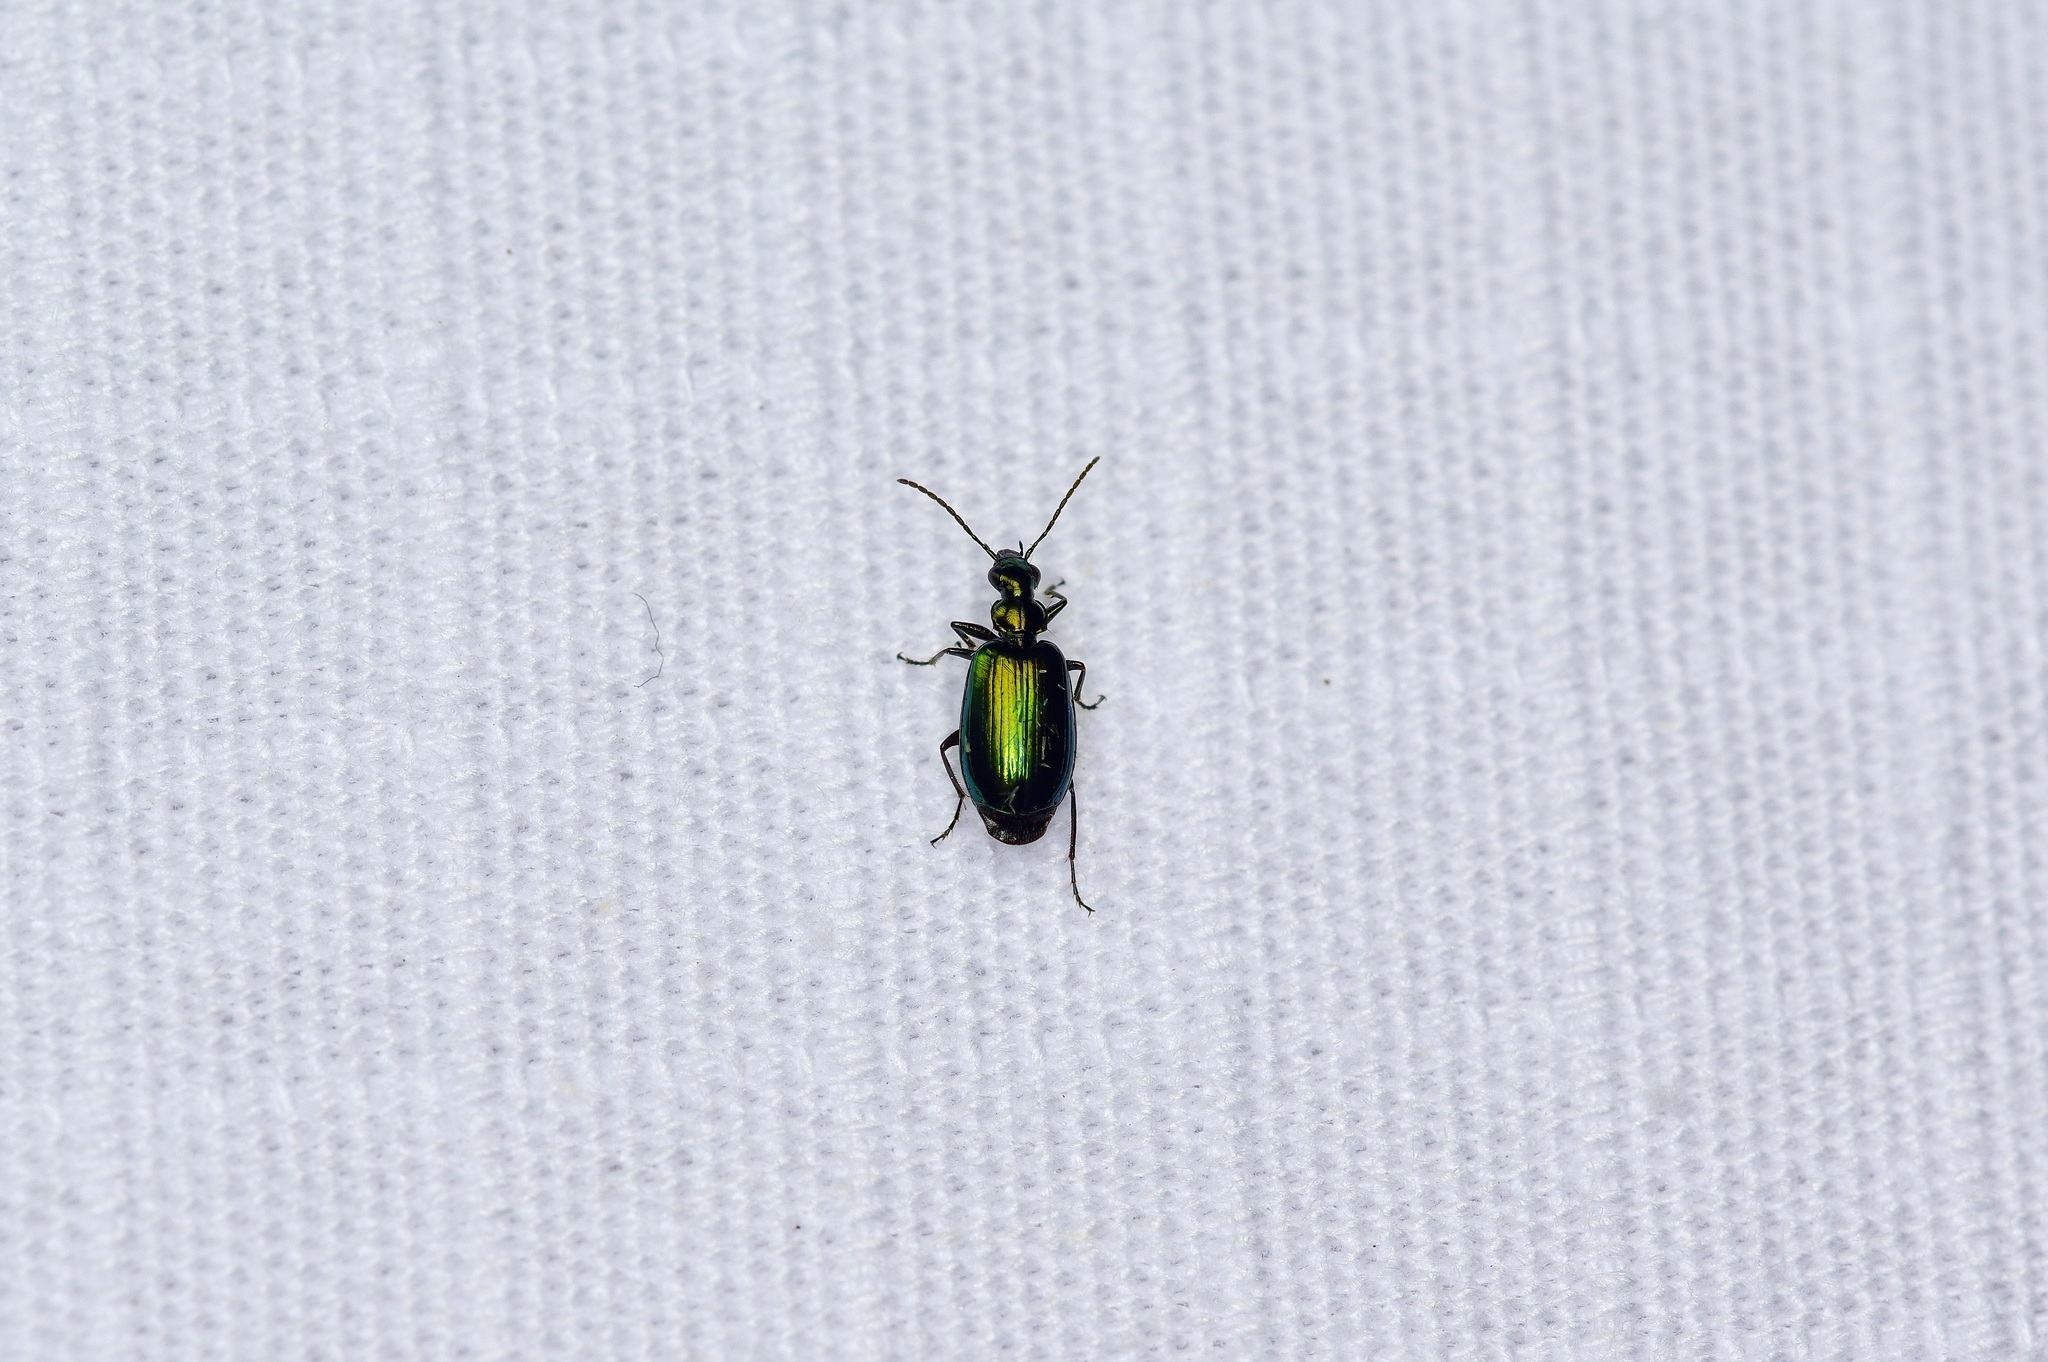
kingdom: Animalia
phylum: Arthropoda
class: Insecta
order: Coleoptera
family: Carabidae
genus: Lebia
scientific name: Lebia viridis
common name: Flower lebia beetle
